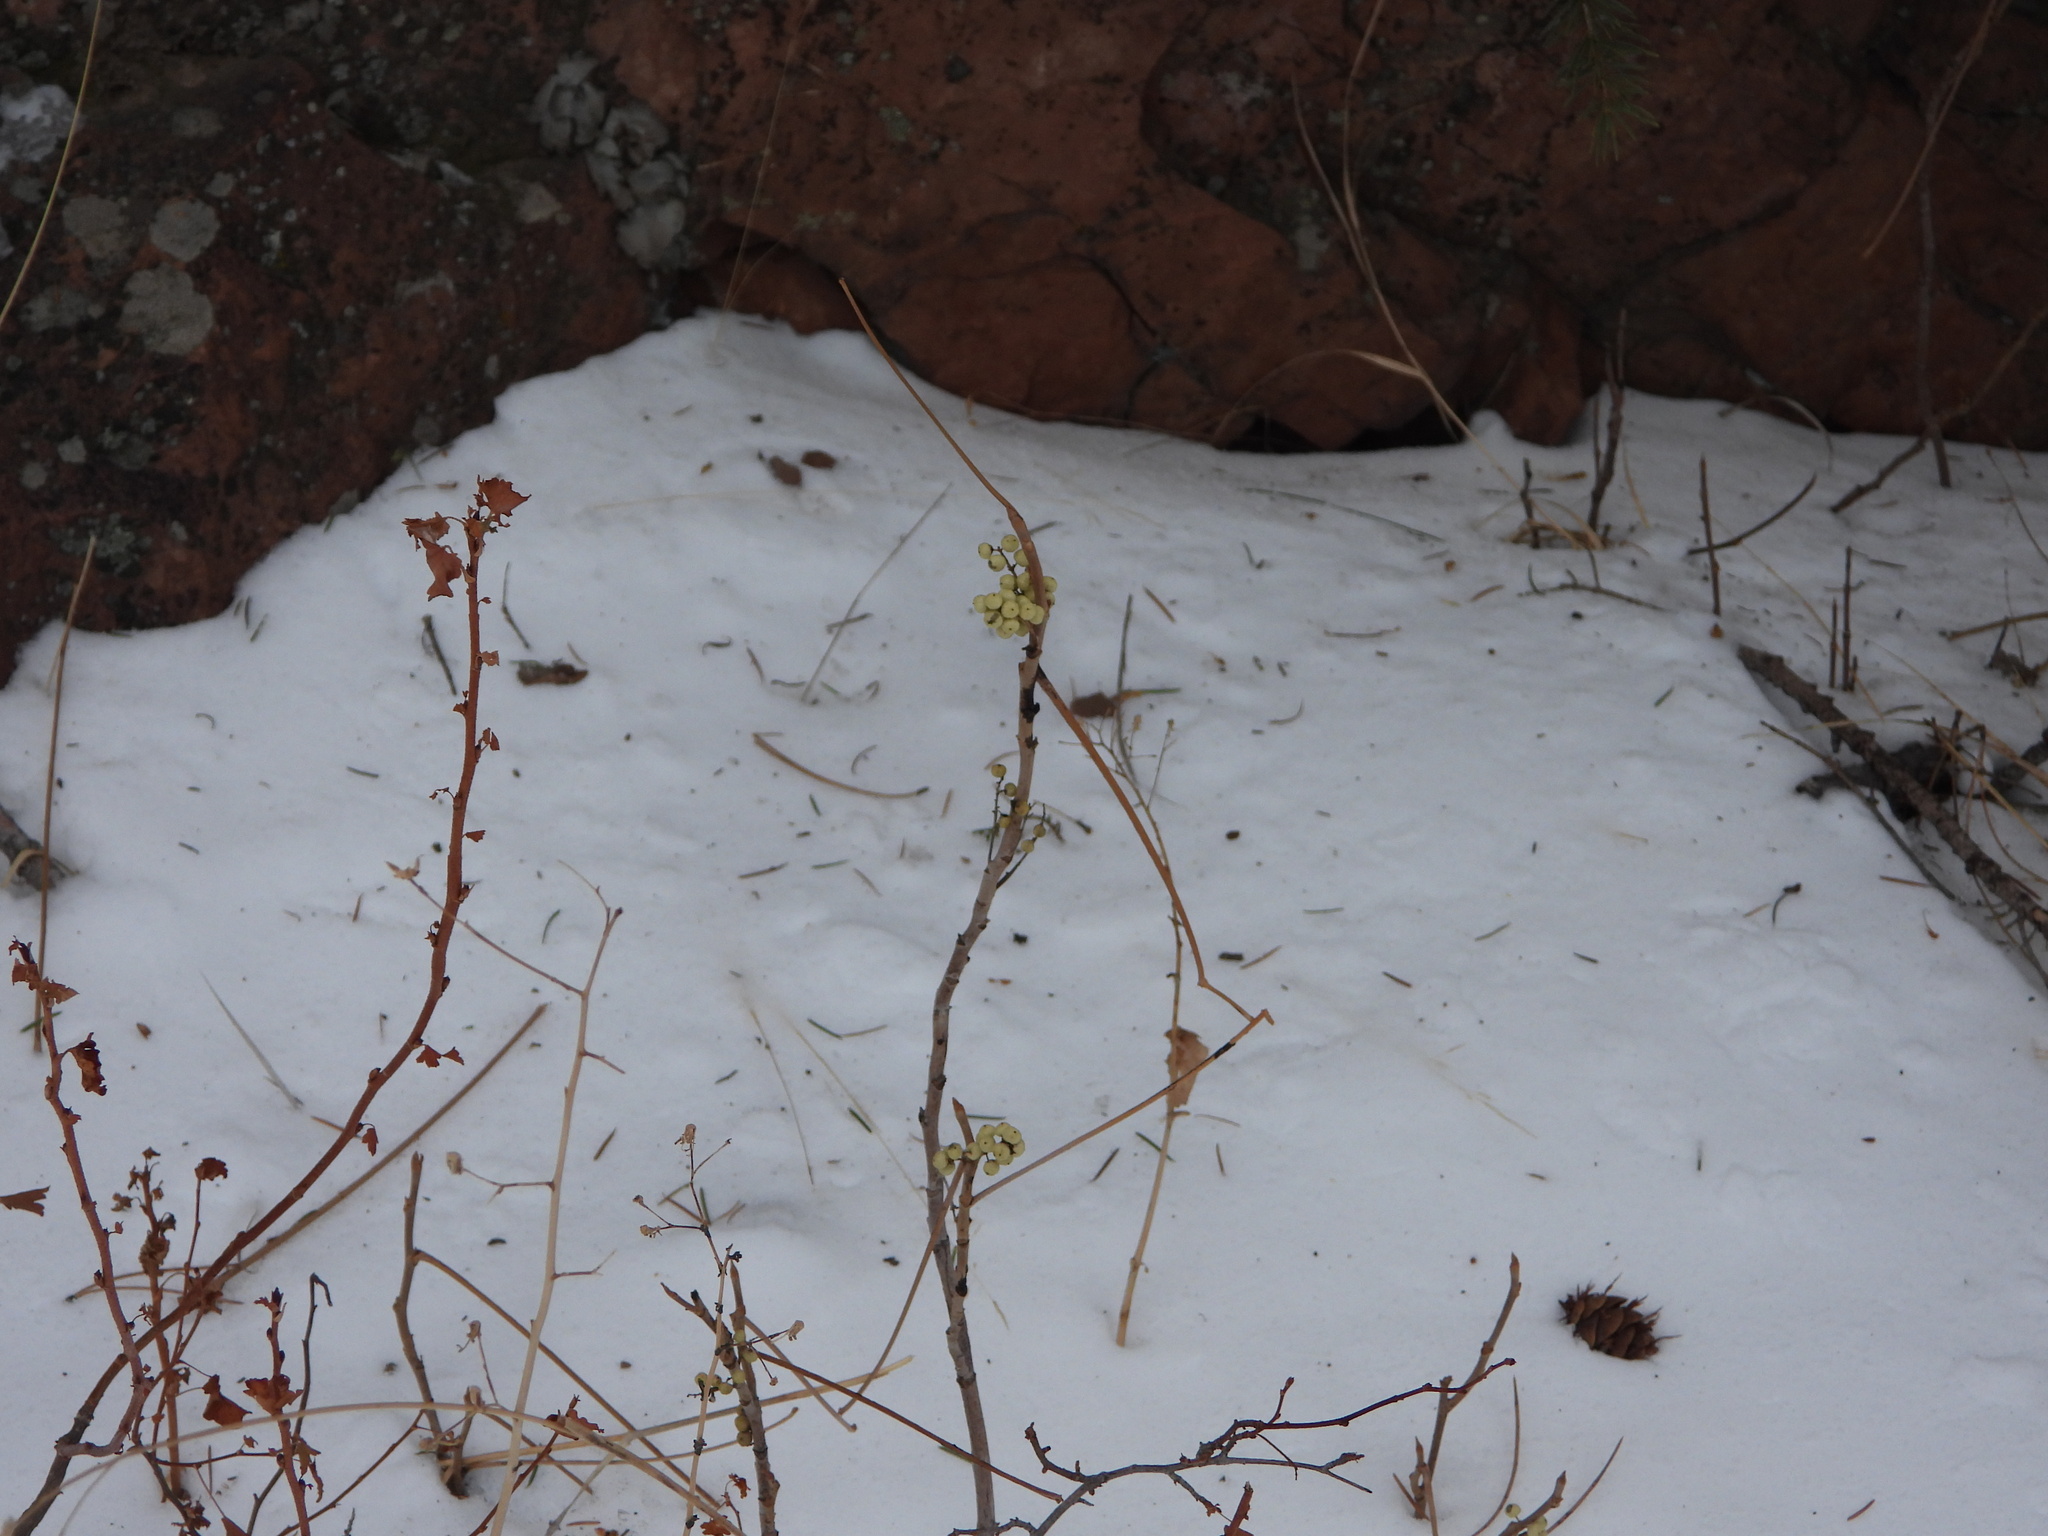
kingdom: Plantae
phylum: Tracheophyta
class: Magnoliopsida
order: Sapindales
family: Anacardiaceae
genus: Toxicodendron
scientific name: Toxicodendron rydbergii
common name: Rydberg's poison-ivy
